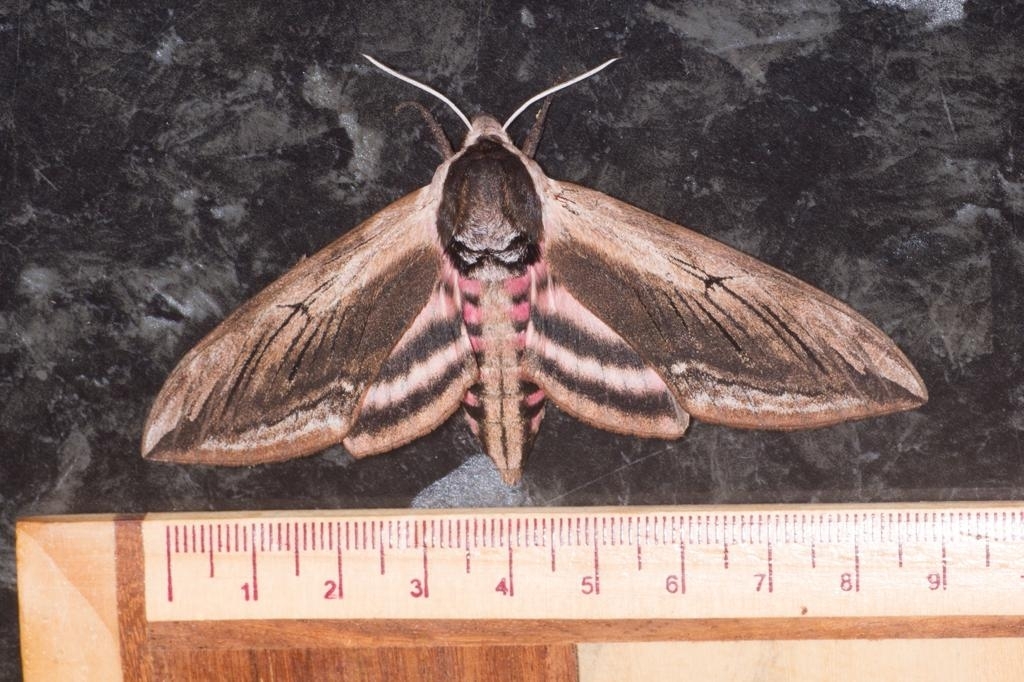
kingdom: Animalia
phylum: Arthropoda
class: Insecta
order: Lepidoptera
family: Sphingidae
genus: Sphinx
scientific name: Sphinx ligustri
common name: Privet hawk-moth
